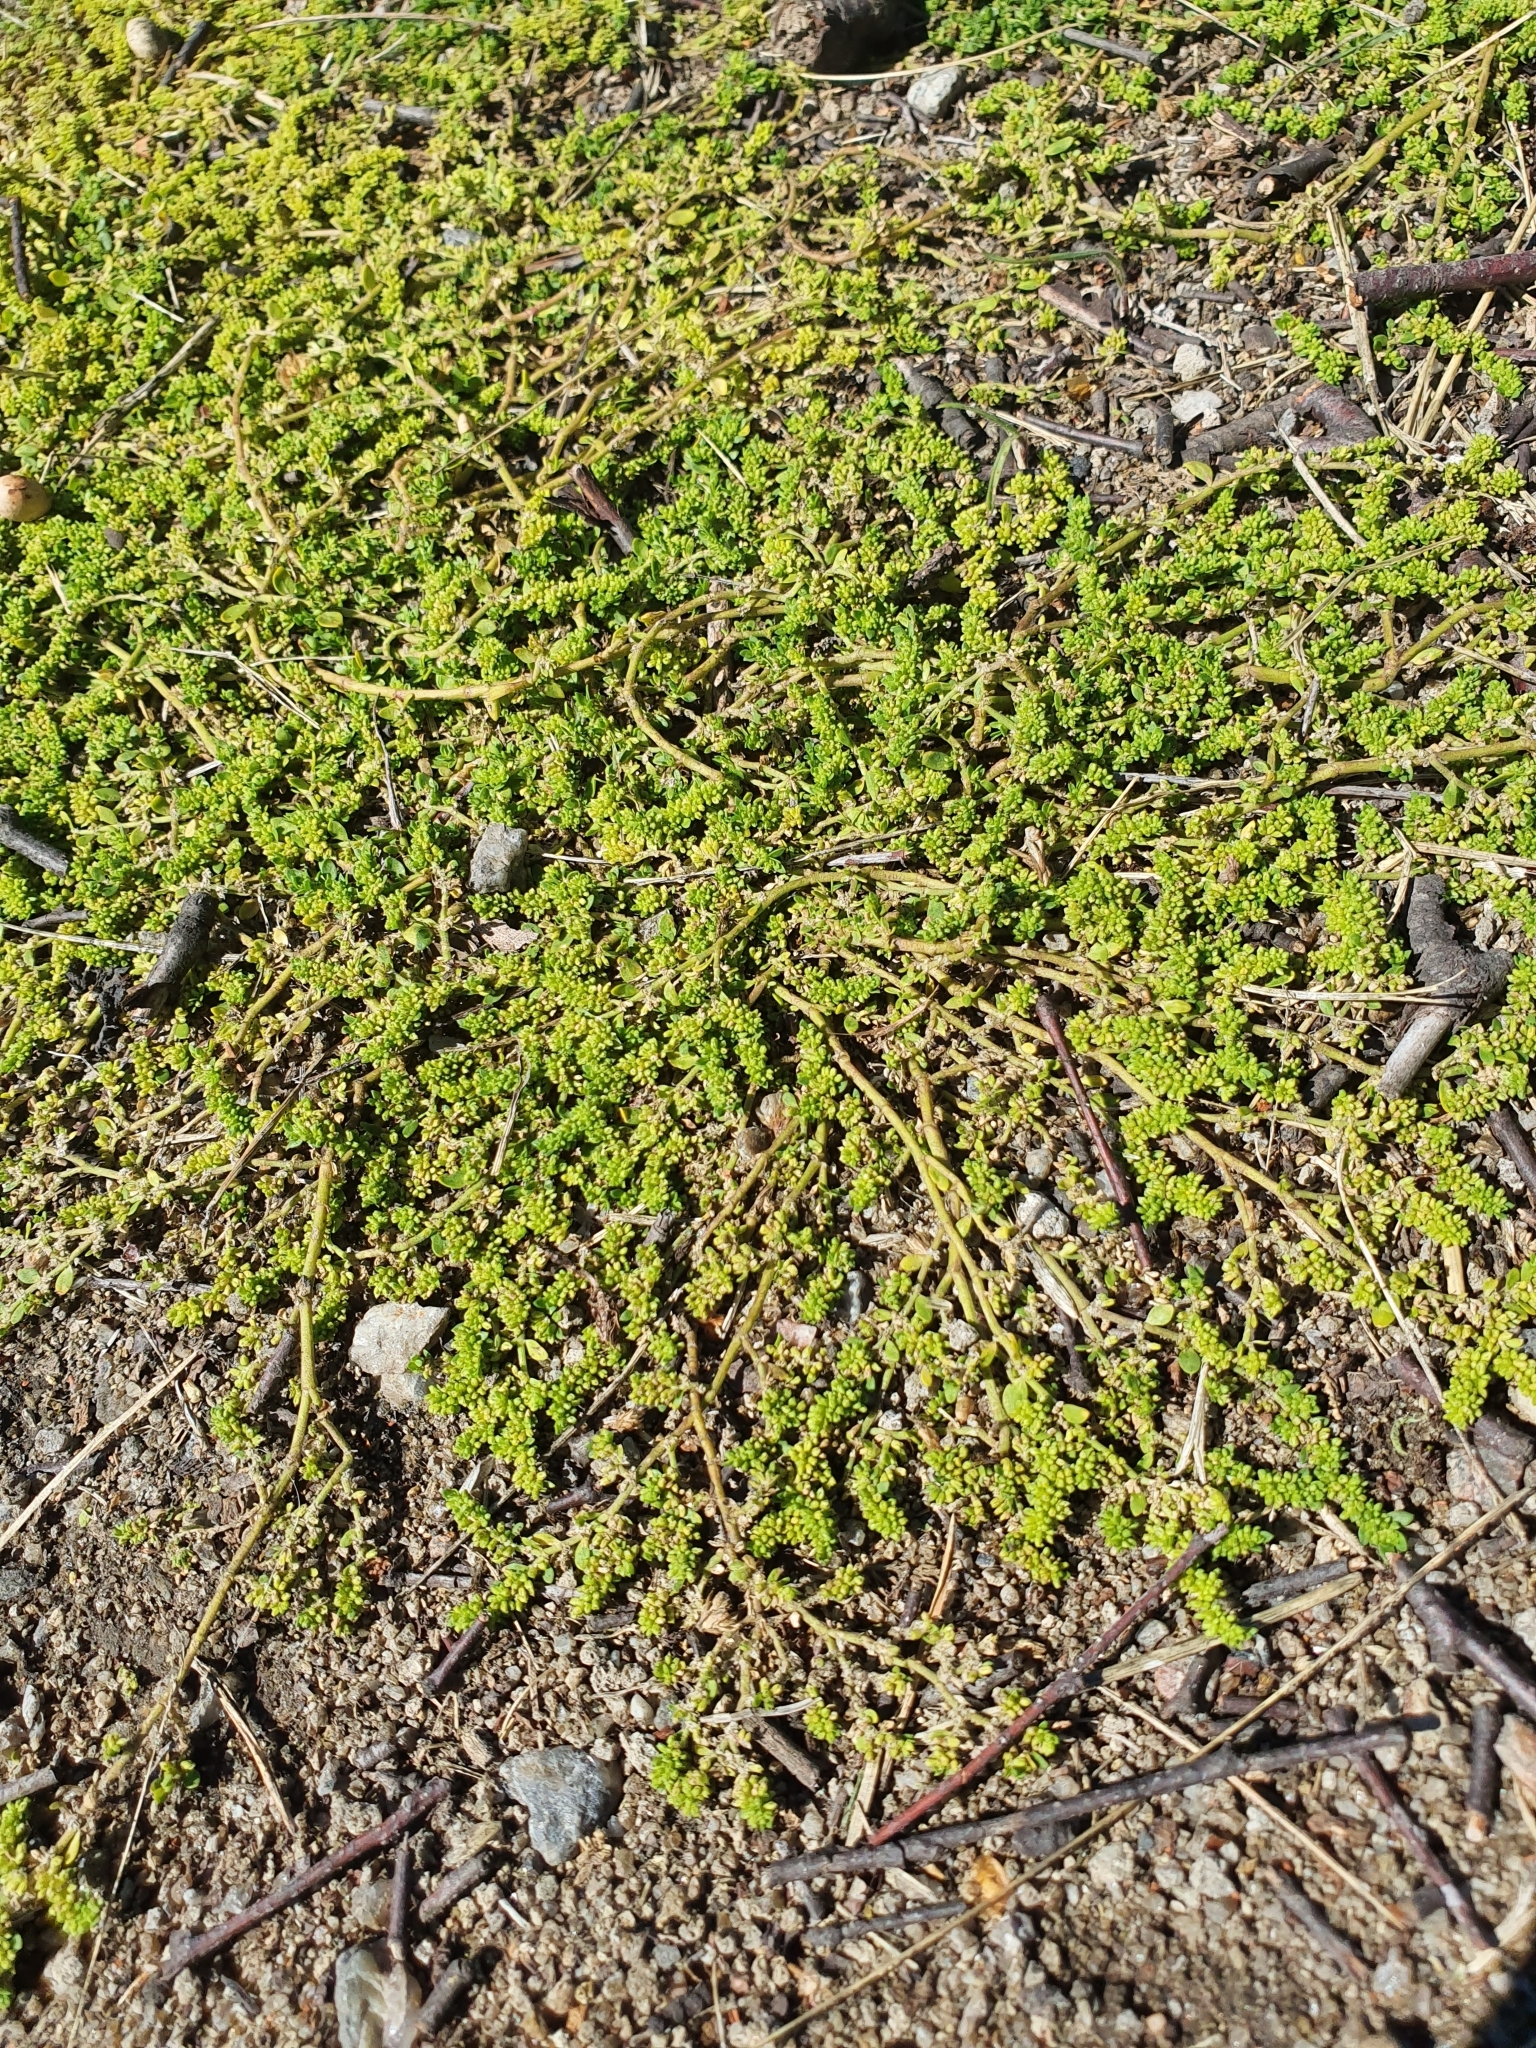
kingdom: Plantae
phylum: Tracheophyta
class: Magnoliopsida
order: Caryophyllales
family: Caryophyllaceae
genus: Herniaria
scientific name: Herniaria glabra
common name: Smooth rupturewort
